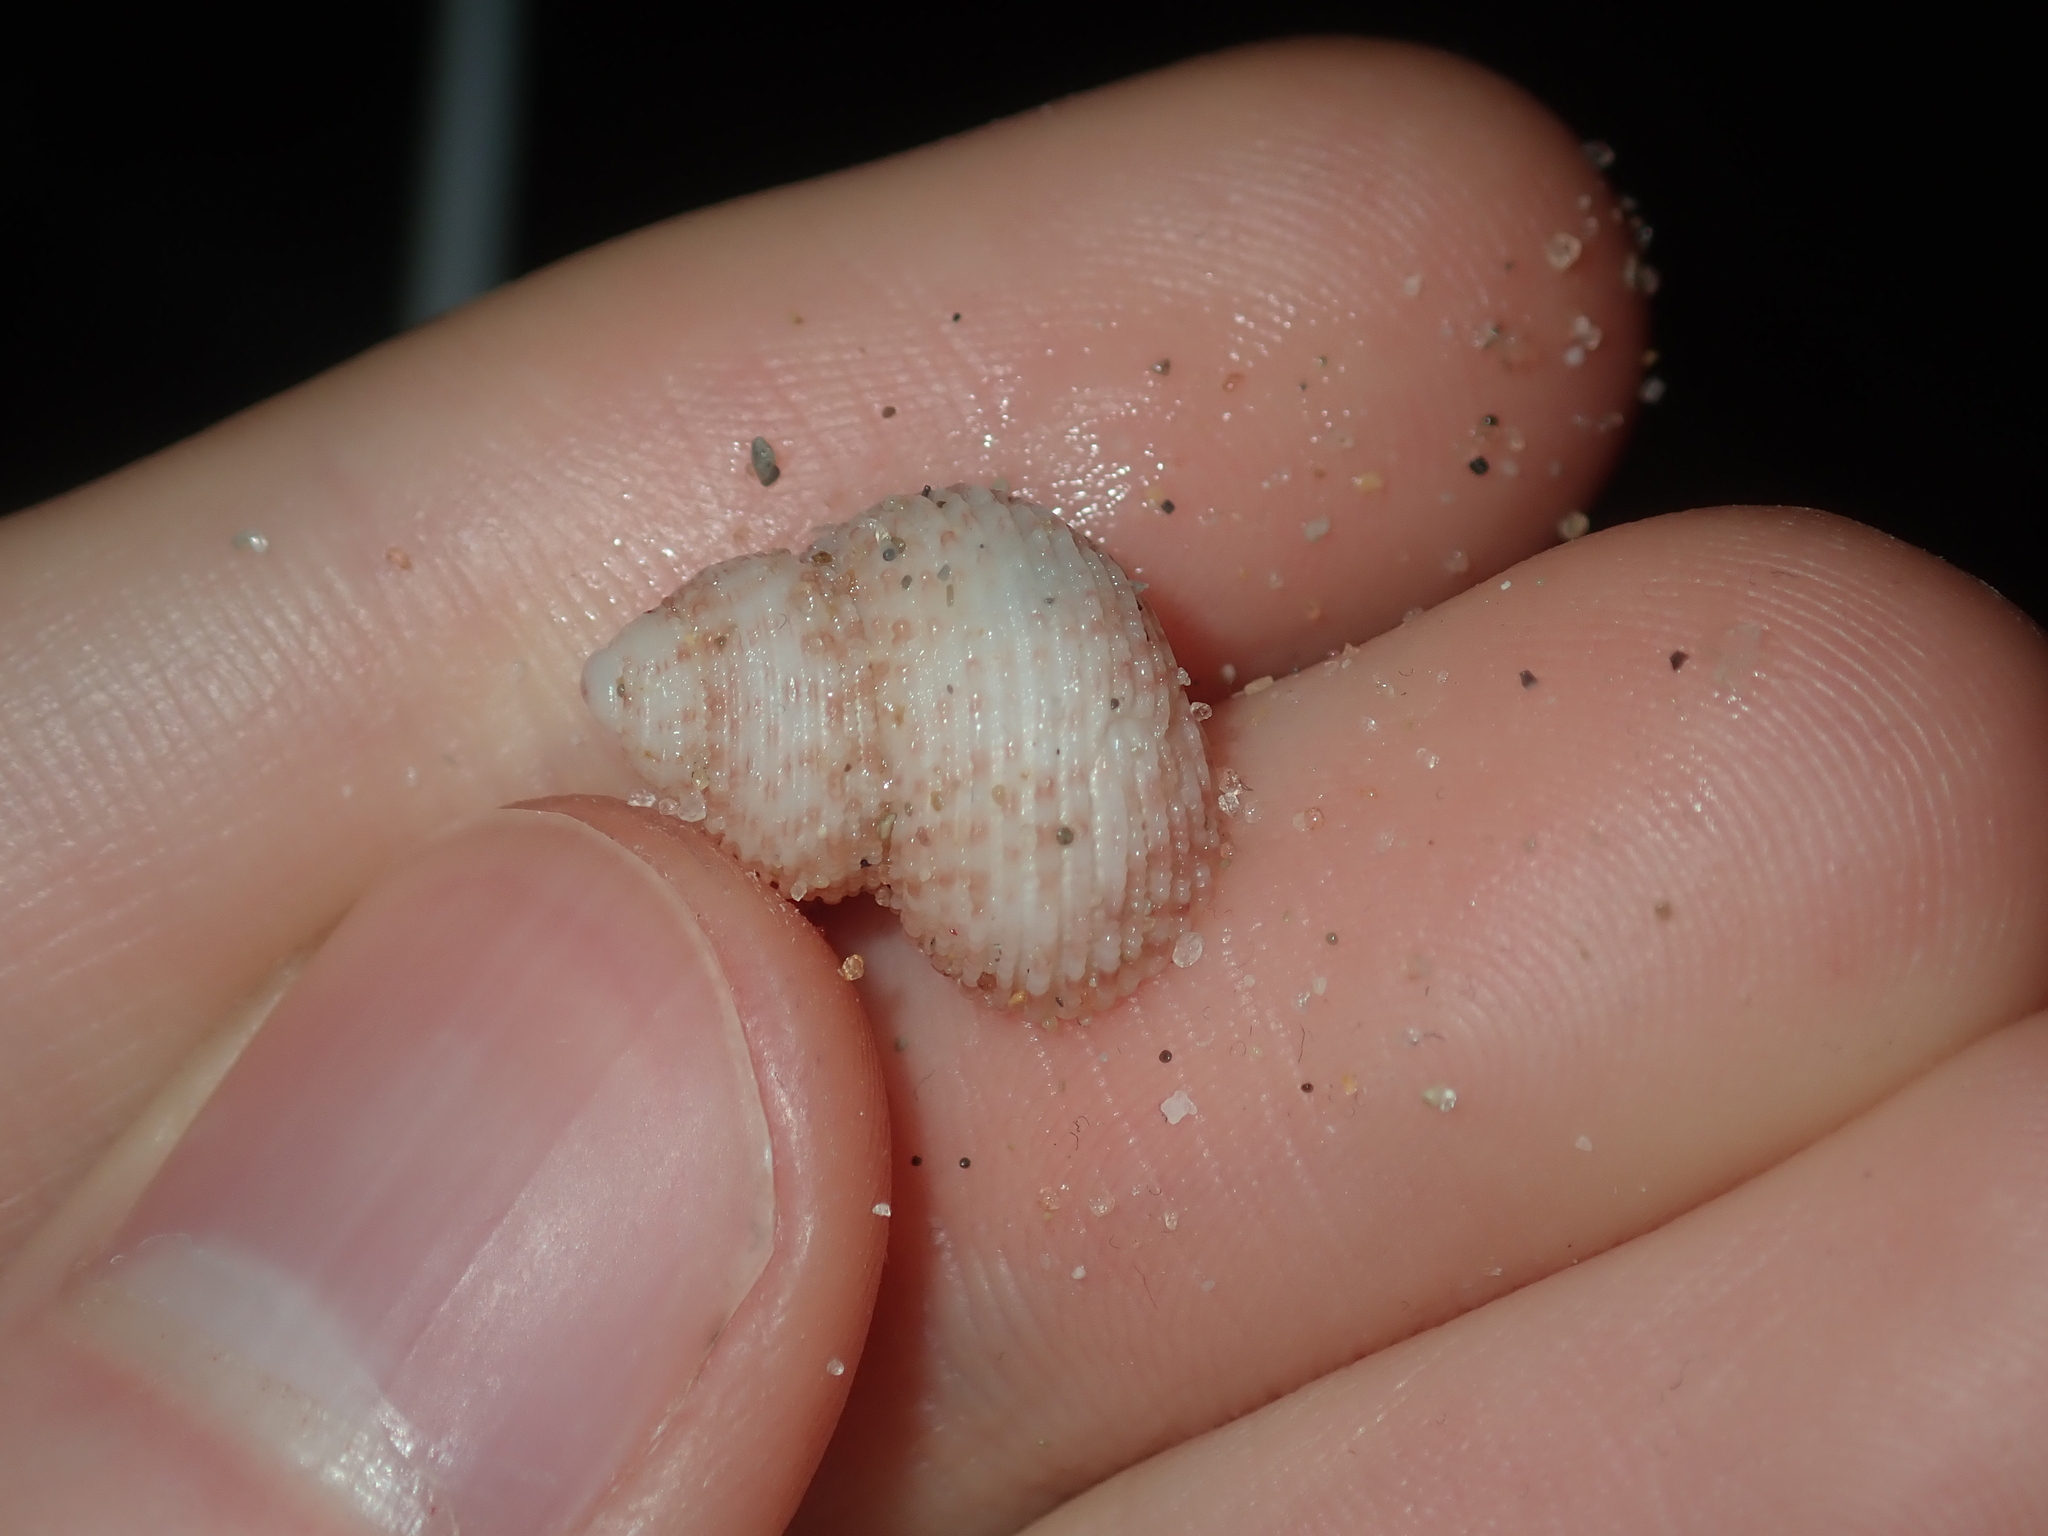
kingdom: Animalia
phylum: Mollusca
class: Gastropoda
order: Seguenziida
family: Chilodontaidae
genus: Herpetopoma
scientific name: Herpetopoma aspersum
